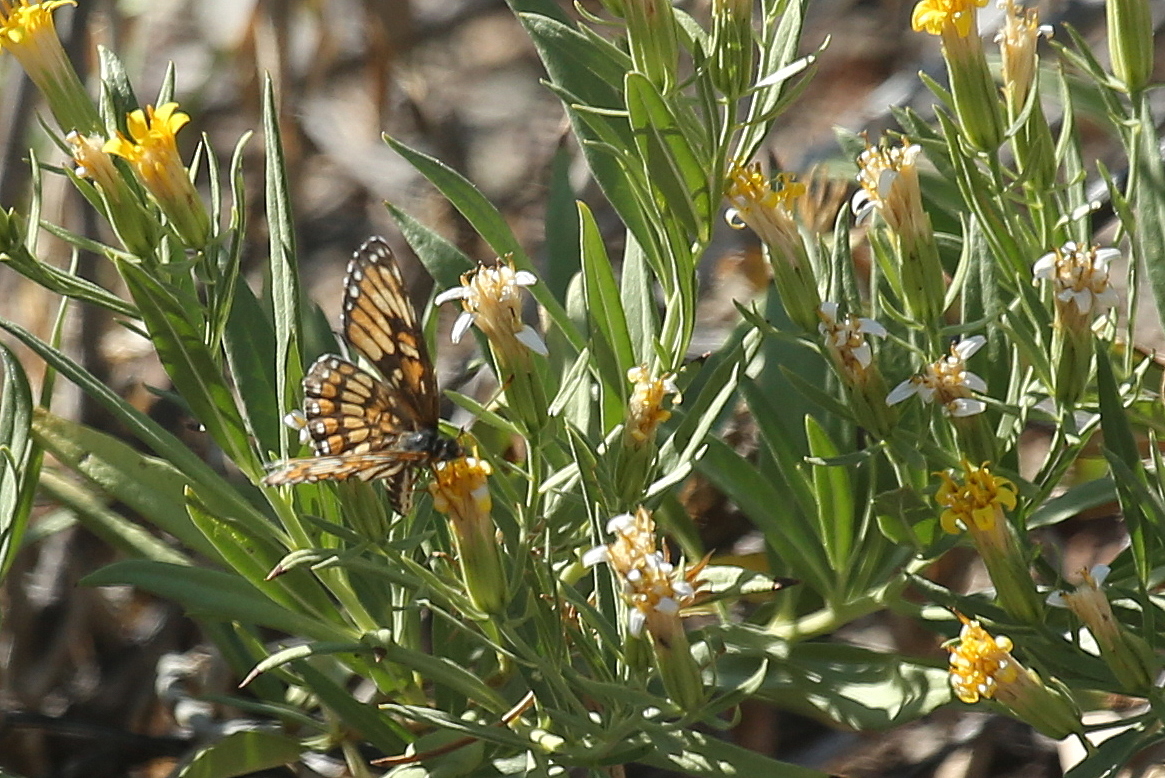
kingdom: Animalia
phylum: Arthropoda
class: Insecta
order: Lepidoptera
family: Nymphalidae
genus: Thessalia
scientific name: Thessalia theona
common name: Nymphalid moth
